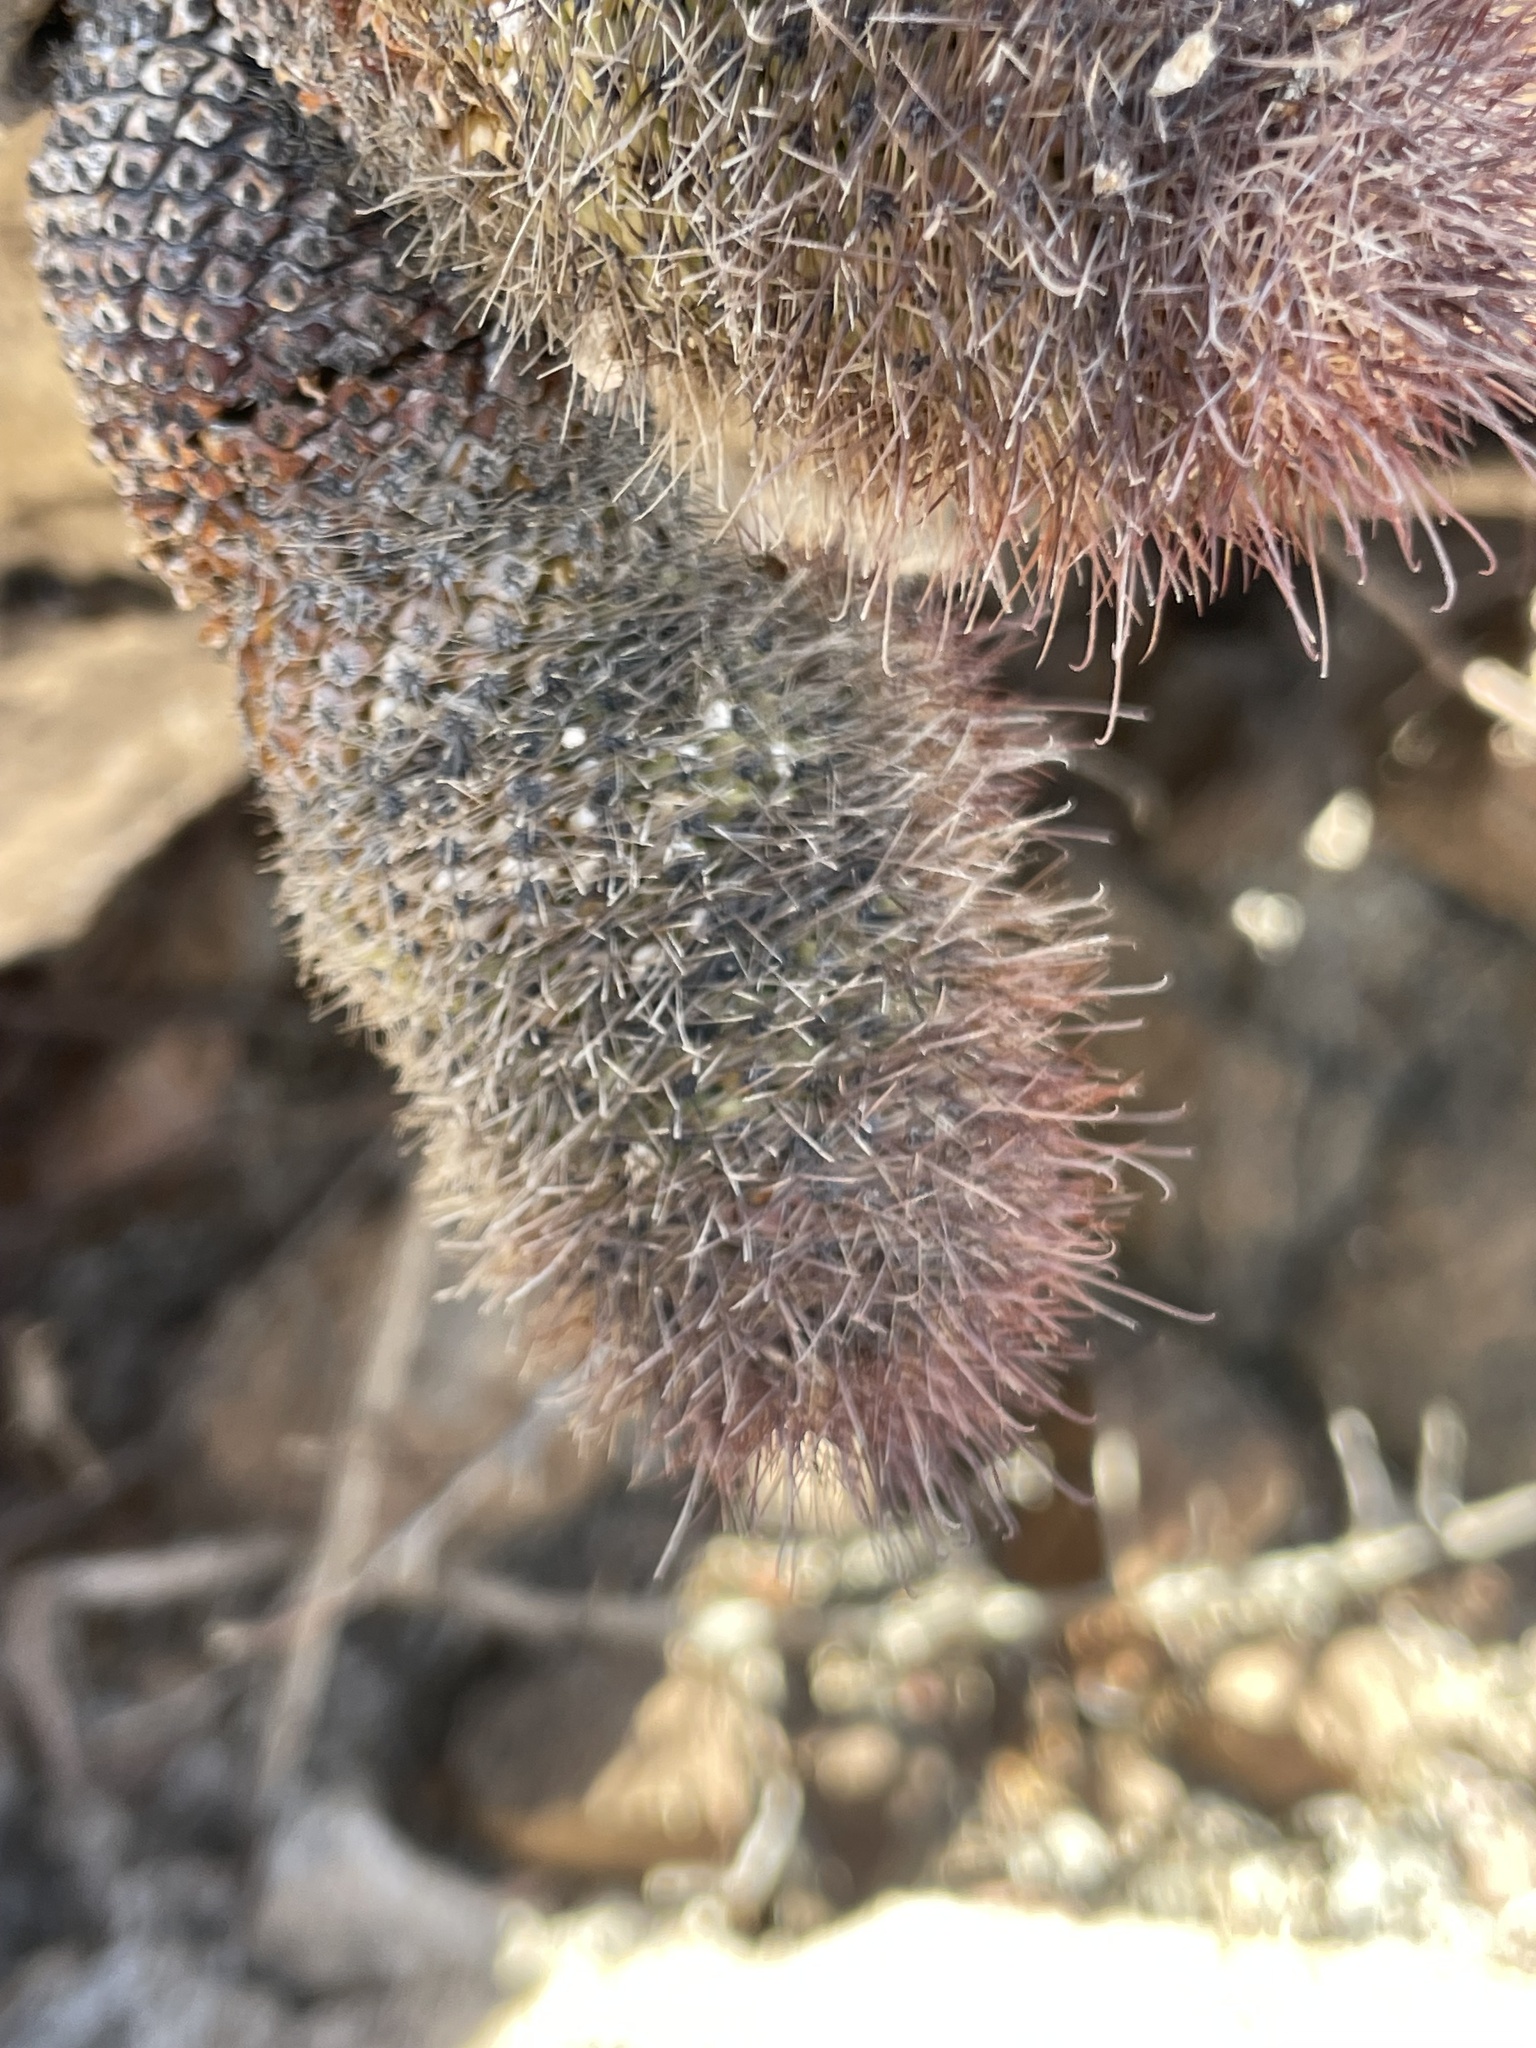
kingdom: Plantae
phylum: Tracheophyta
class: Magnoliopsida
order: Caryophyllales
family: Cactaceae
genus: Cochemiea
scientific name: Cochemiea fraileana
